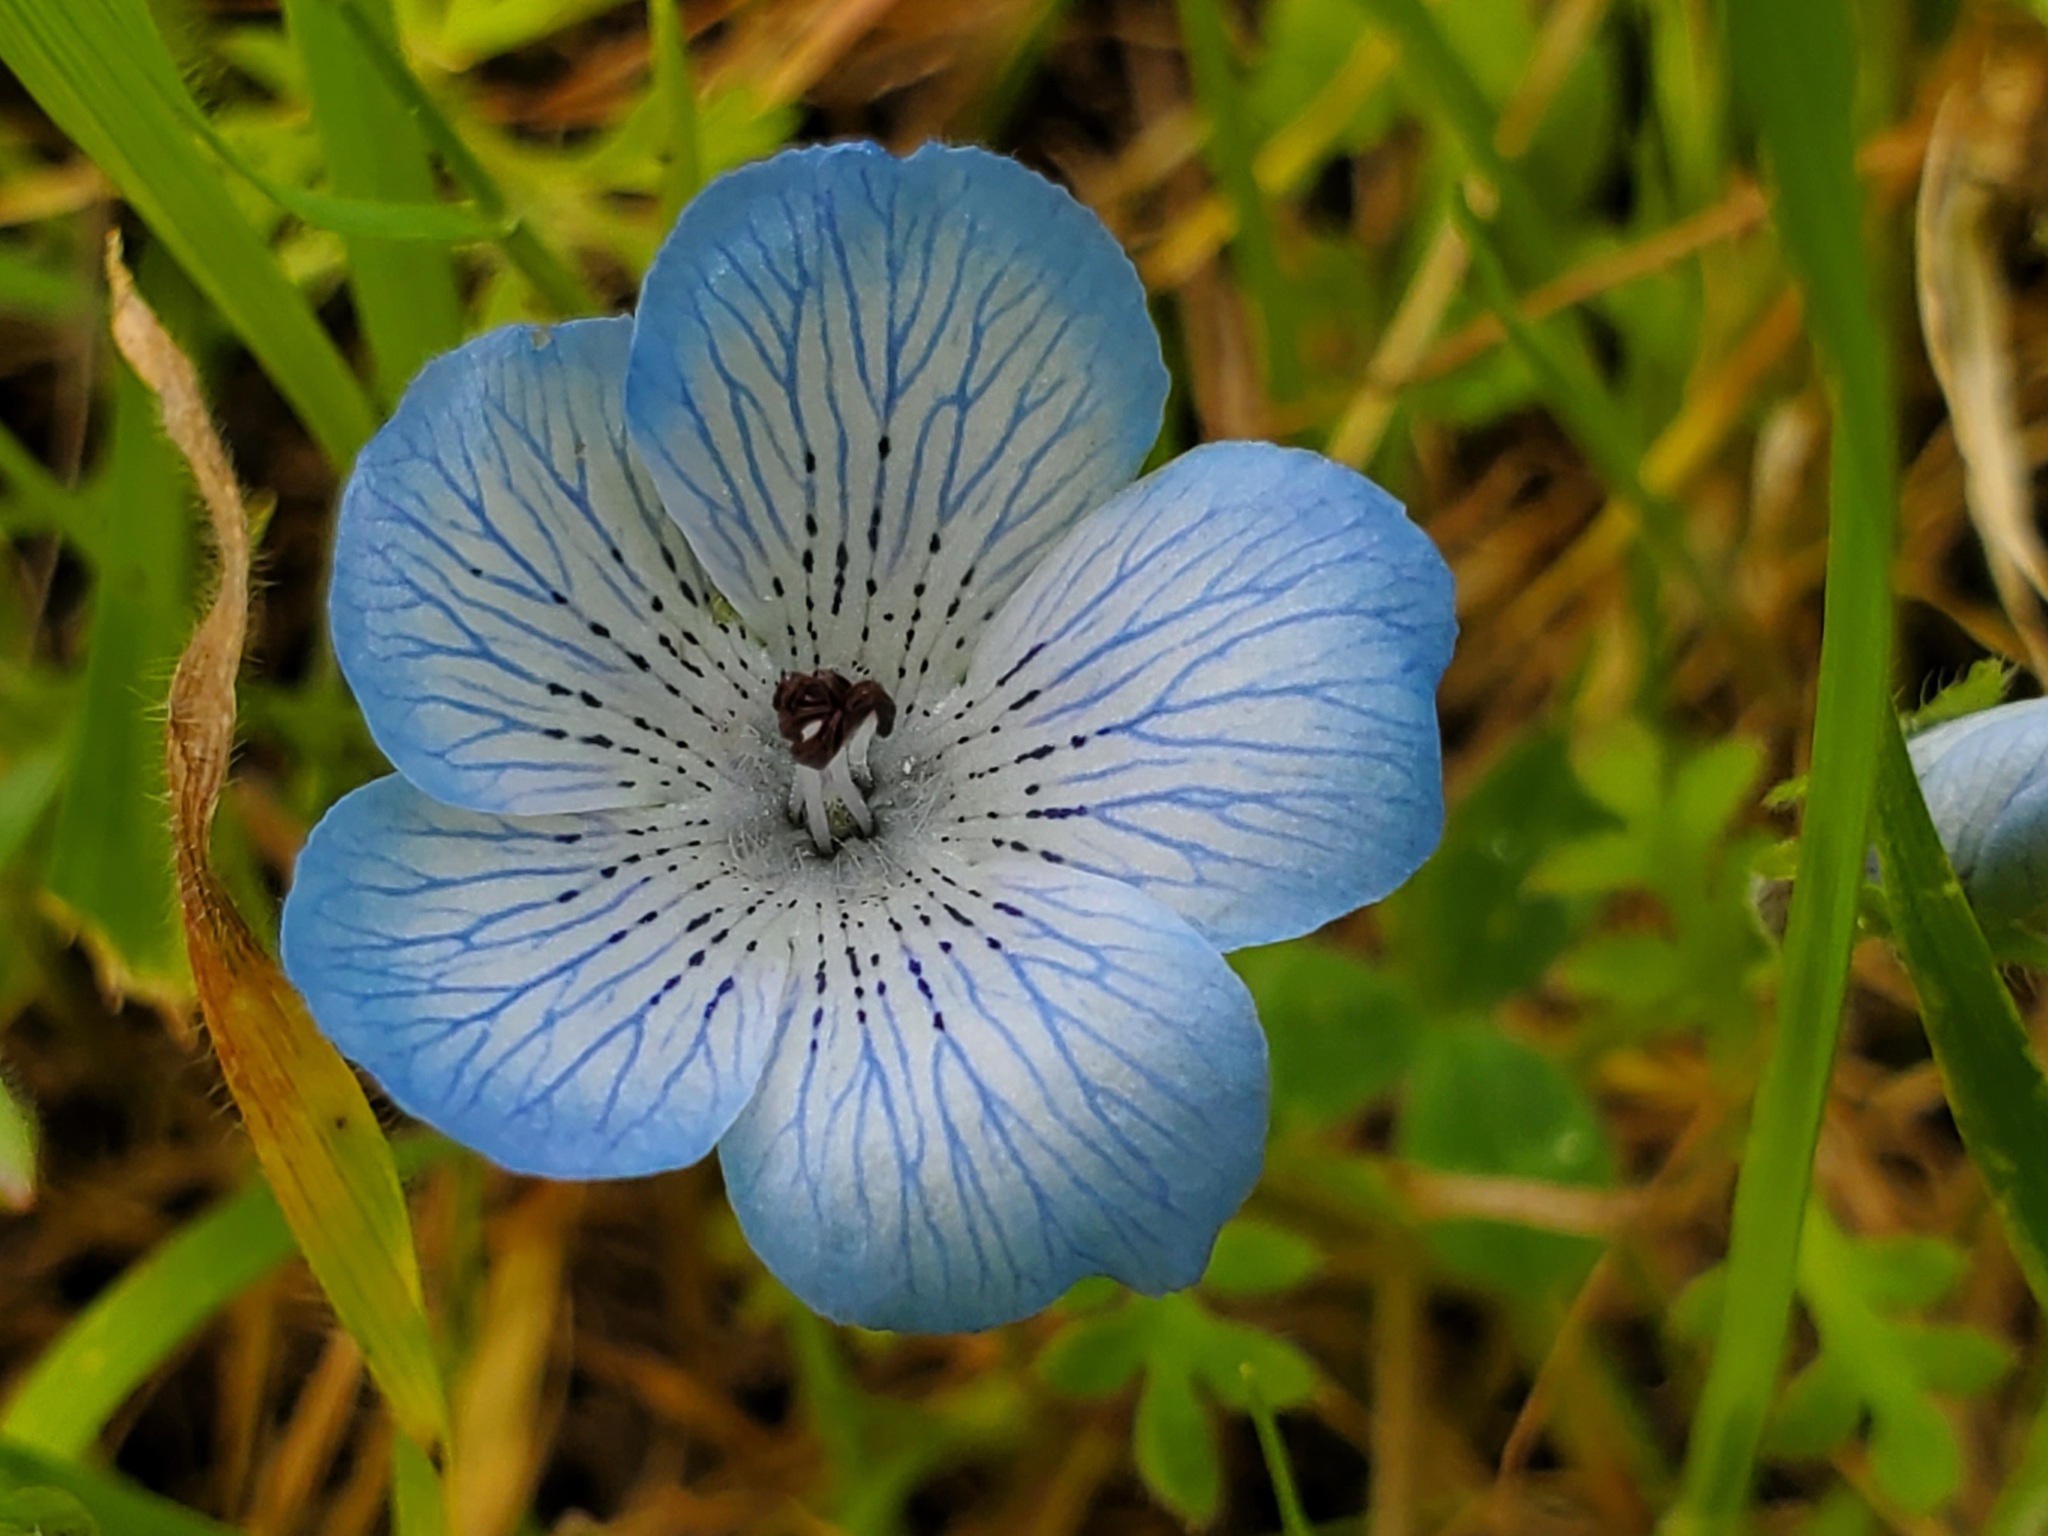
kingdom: Plantae
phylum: Tracheophyta
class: Magnoliopsida
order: Boraginales
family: Hydrophyllaceae
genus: Nemophila
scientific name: Nemophila menziesii
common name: Baby's-blue-eyes
